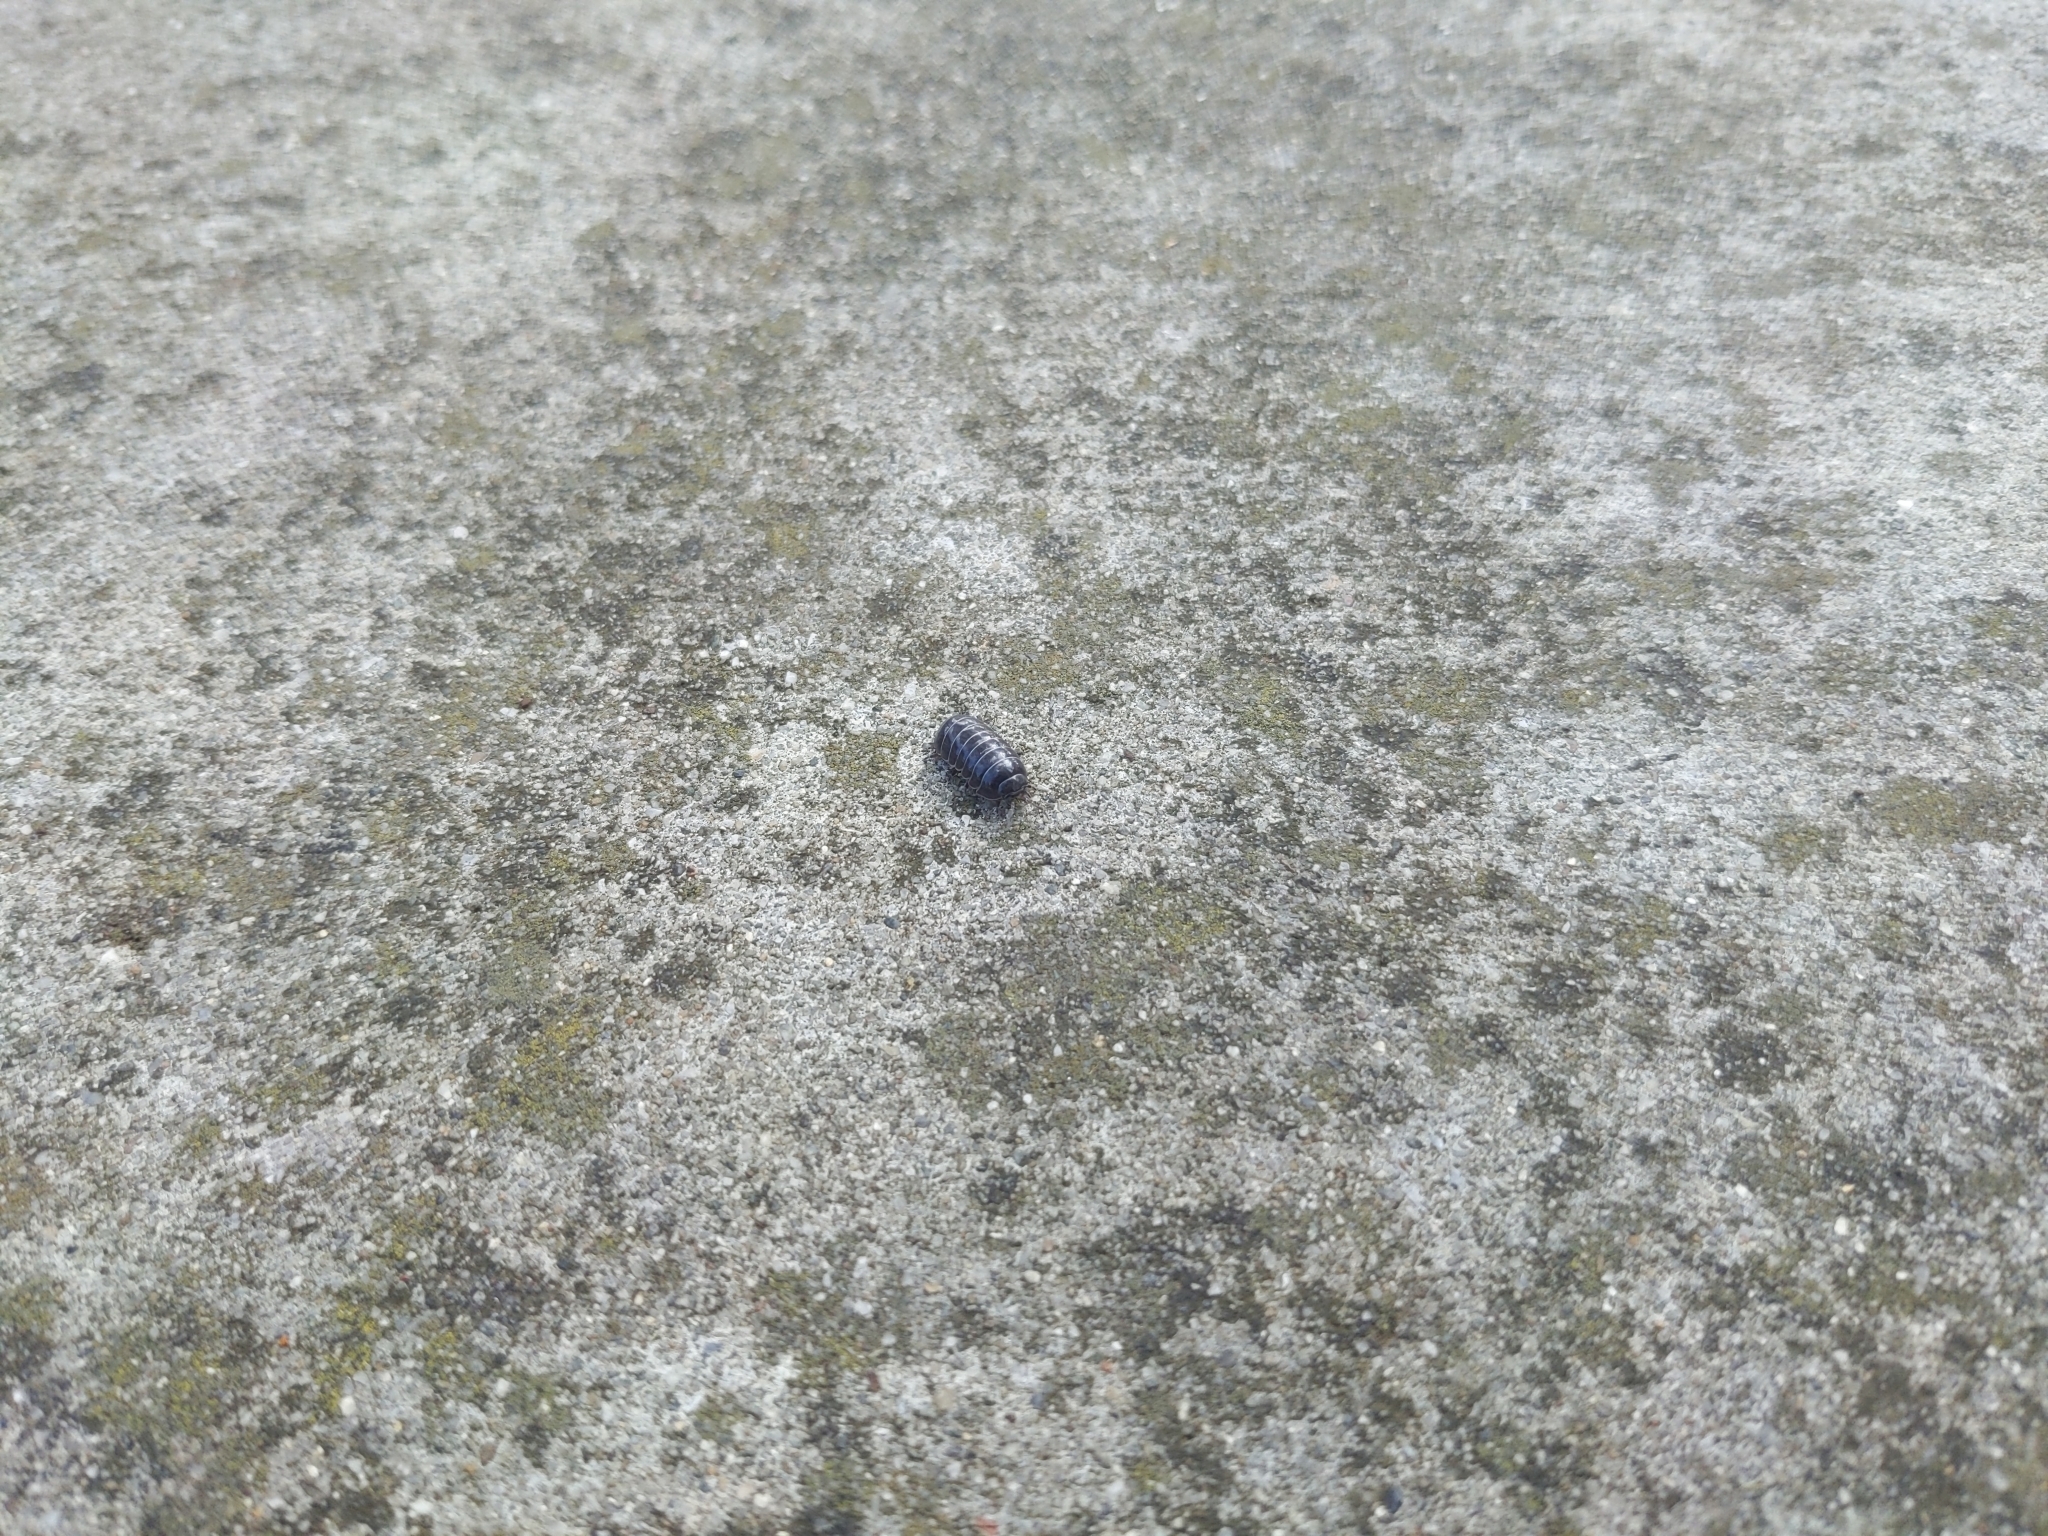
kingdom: Animalia
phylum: Arthropoda
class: Malacostraca
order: Isopoda
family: Armadillidiidae
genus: Armadillidium
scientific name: Armadillidium vulgare
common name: Common pill woodlouse
